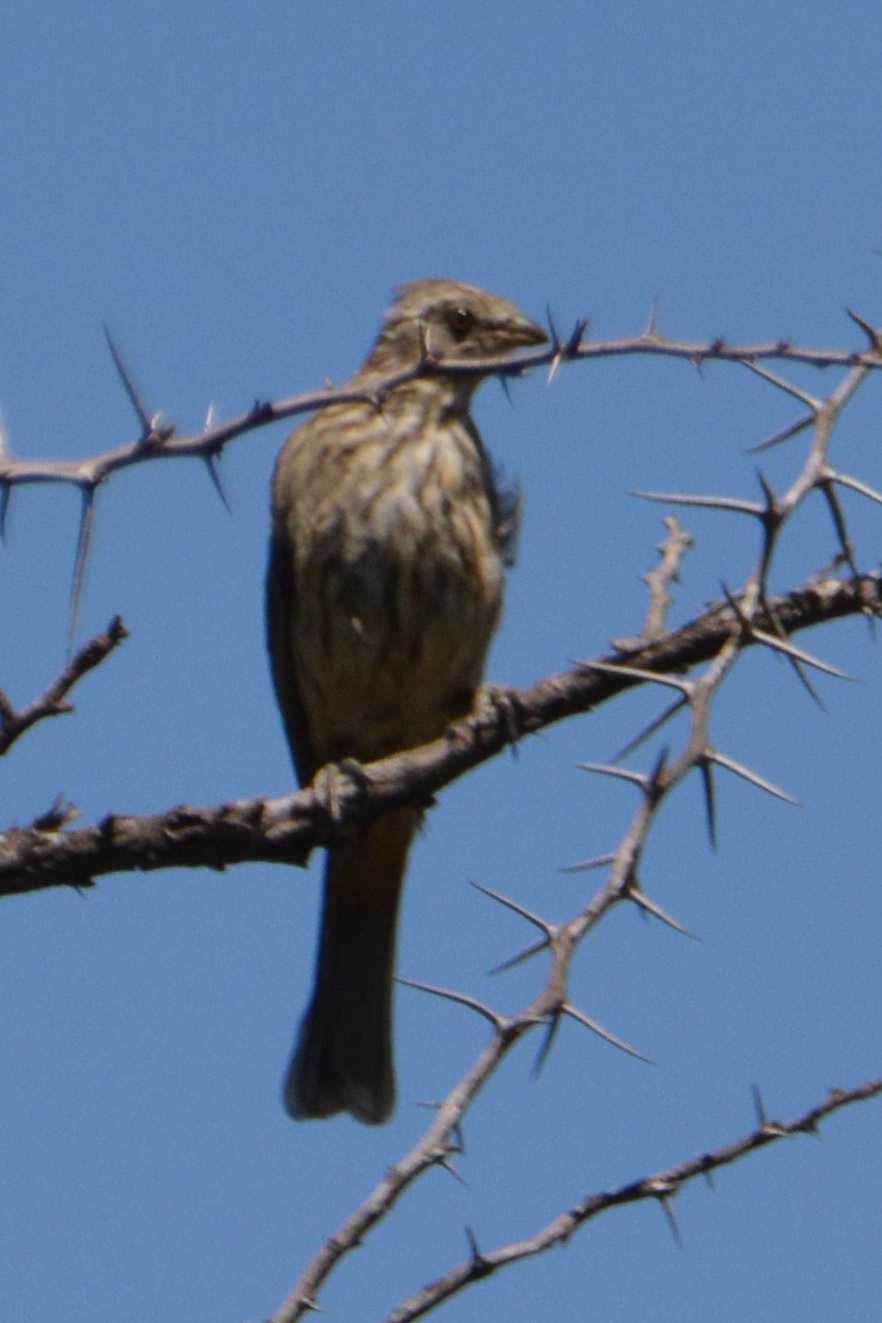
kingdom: Animalia
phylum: Chordata
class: Aves
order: Passeriformes
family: Cotingidae
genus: Phytotoma
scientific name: Phytotoma rutila
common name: White-tipped plantcutter
